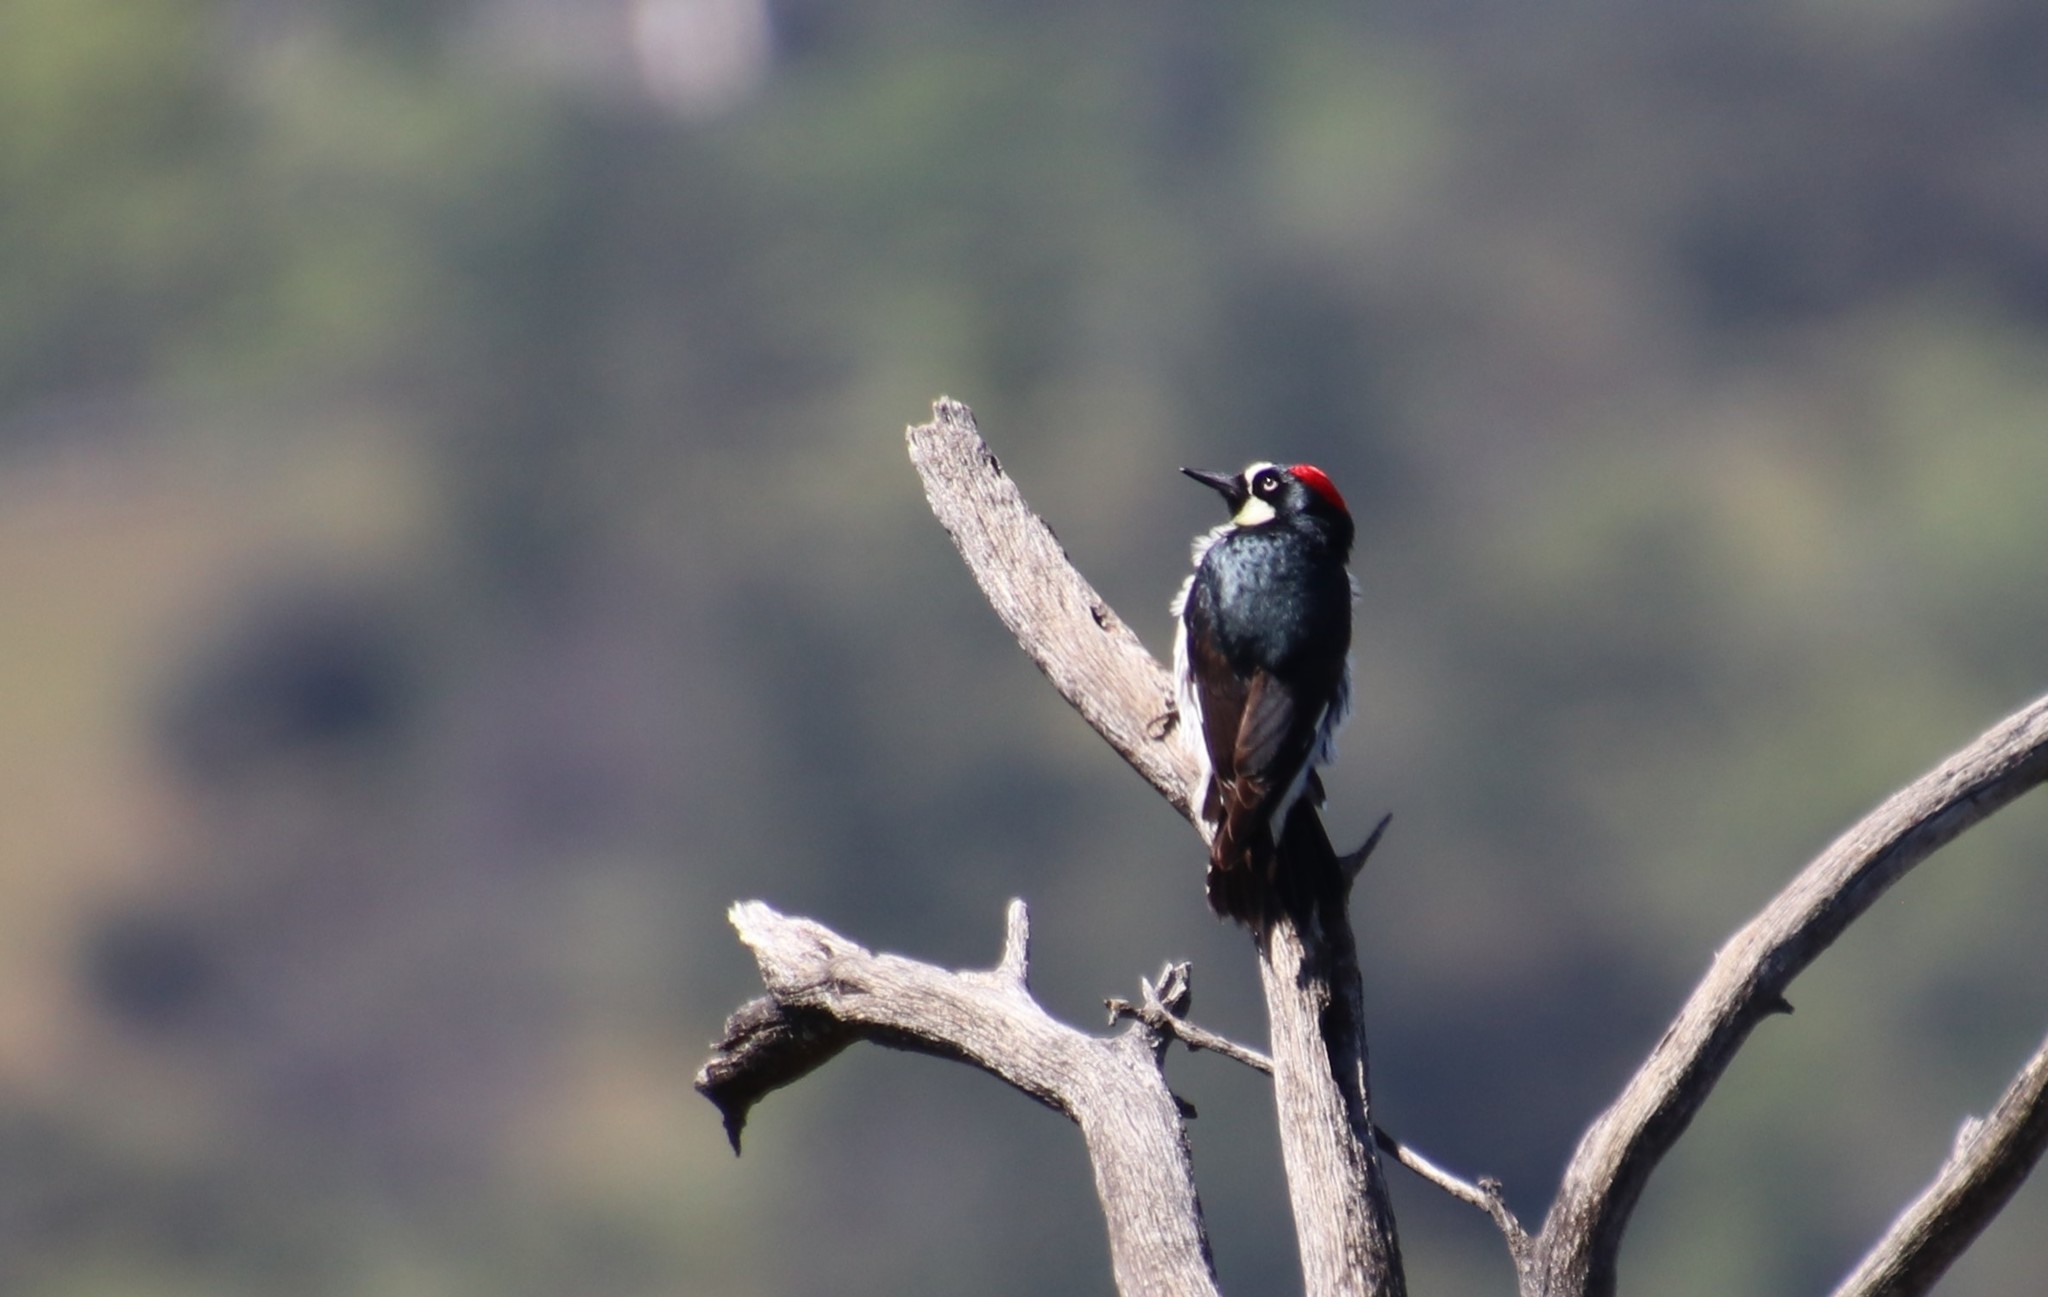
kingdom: Animalia
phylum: Chordata
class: Aves
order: Piciformes
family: Picidae
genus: Melanerpes
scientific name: Melanerpes formicivorus
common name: Acorn woodpecker
